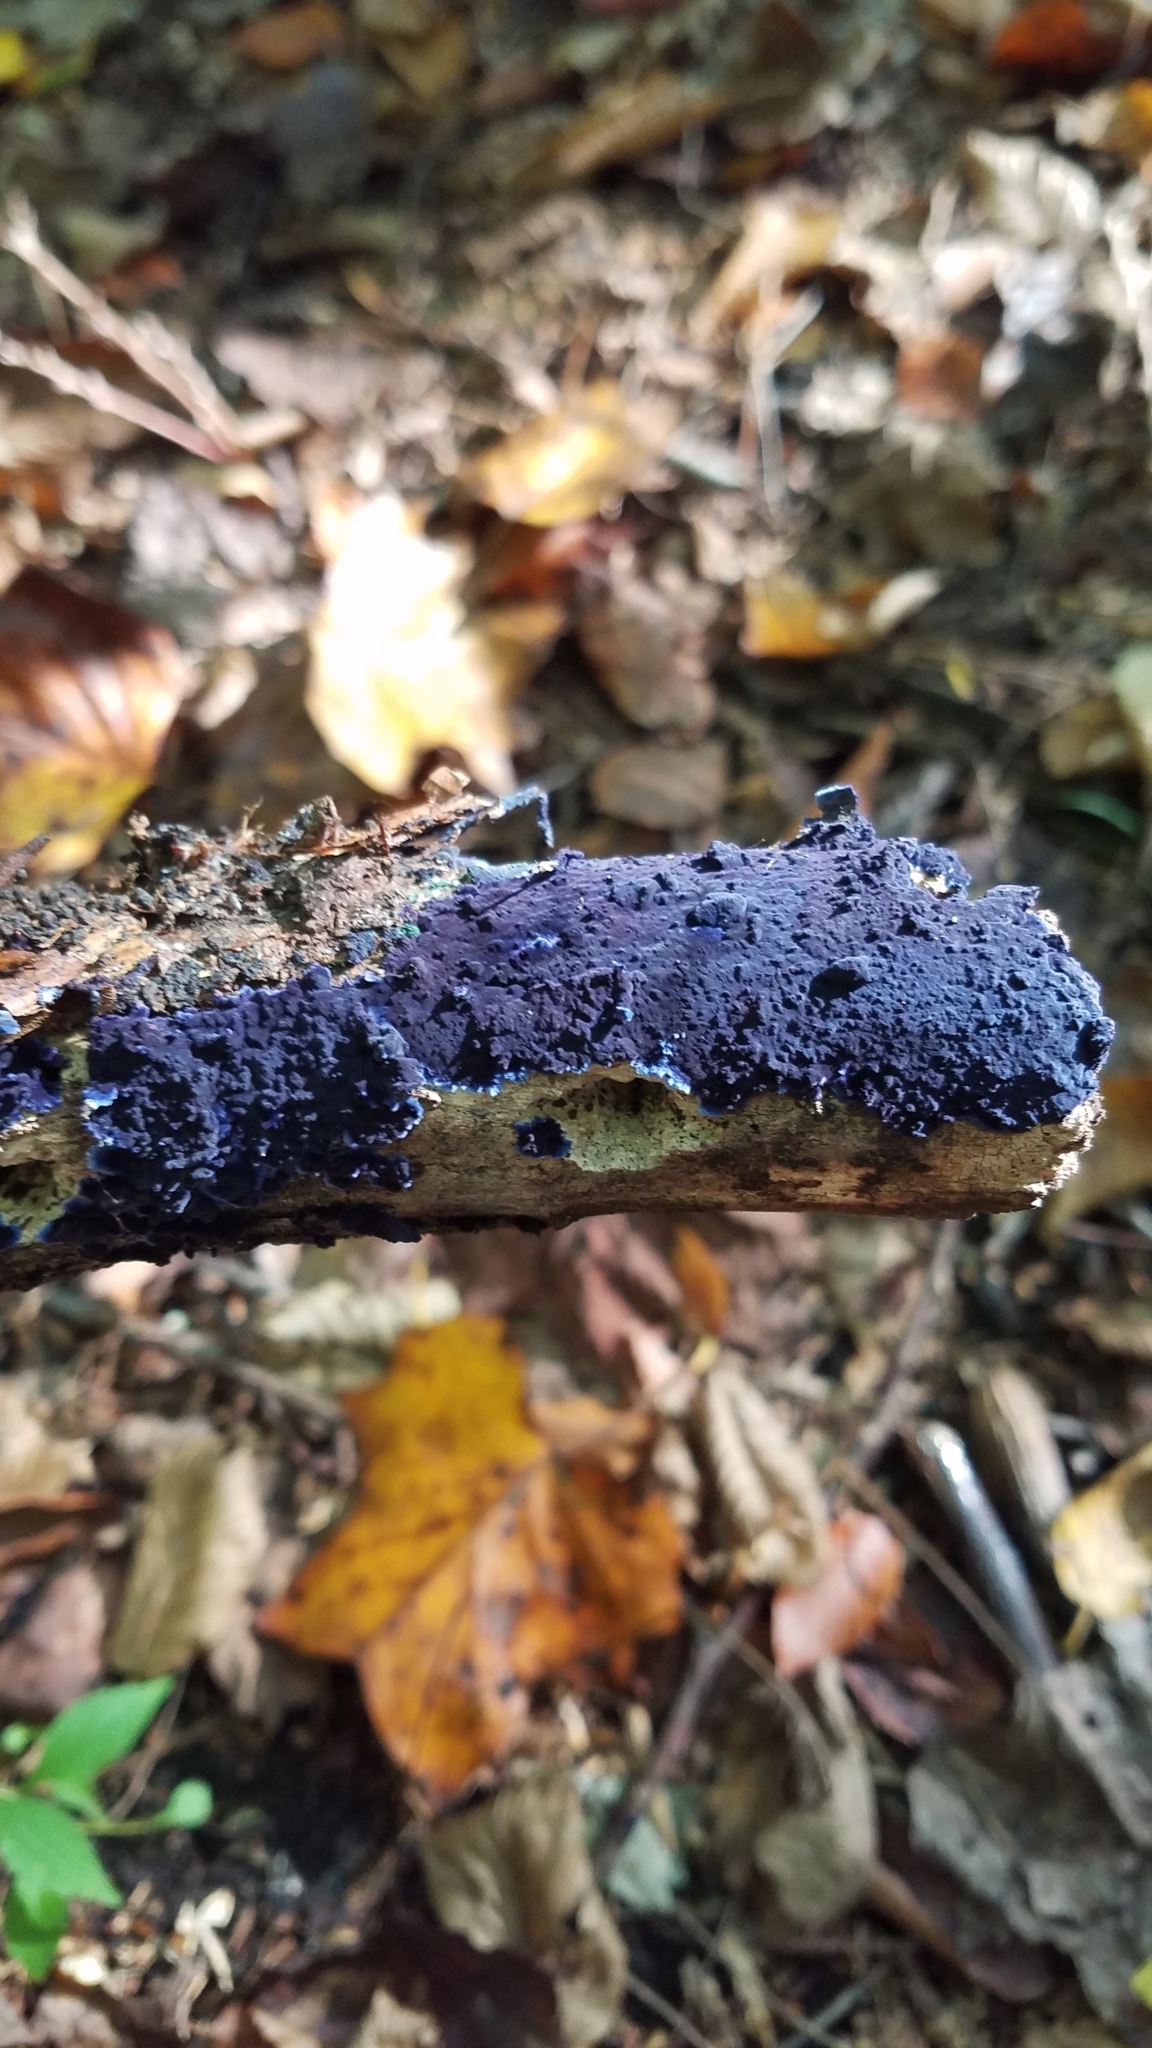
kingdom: Fungi
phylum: Basidiomycota
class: Agaricomycetes
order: Polyporales
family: Phanerochaetaceae
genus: Terana
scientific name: Terana coerulea
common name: Cobalt crust
